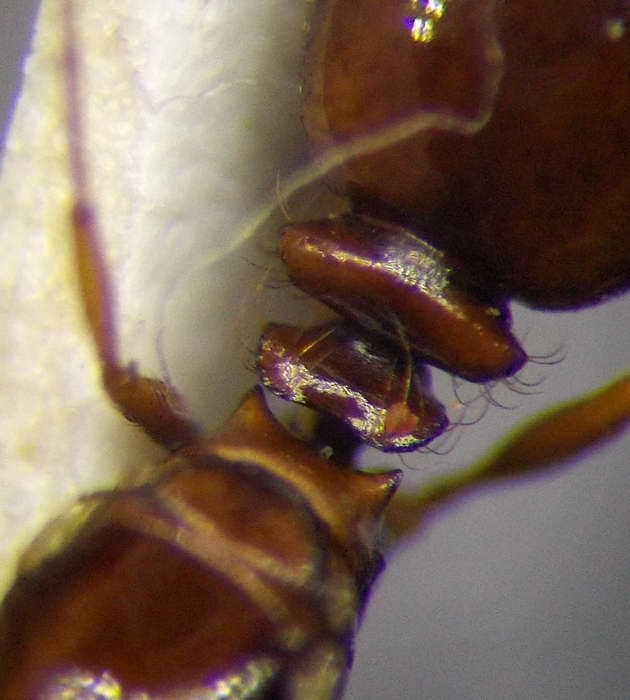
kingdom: Animalia
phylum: Arthropoda
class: Insecta
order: Hymenoptera
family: Formicidae
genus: Tetramorium
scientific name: Tetramorium ferox
